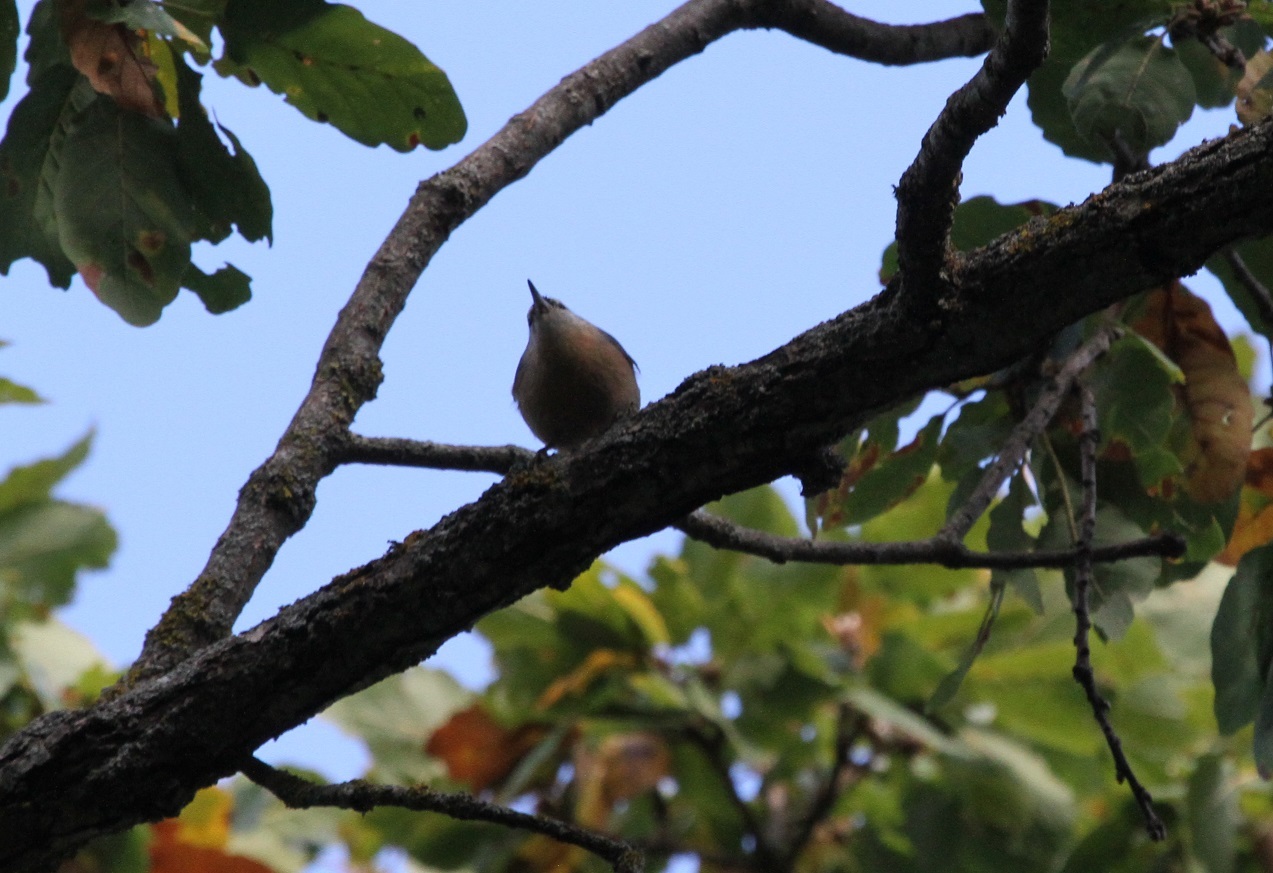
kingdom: Animalia
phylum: Chordata
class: Aves
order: Passeriformes
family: Sittidae
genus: Sitta
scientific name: Sitta ledanti
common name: Algerian nuthatch
